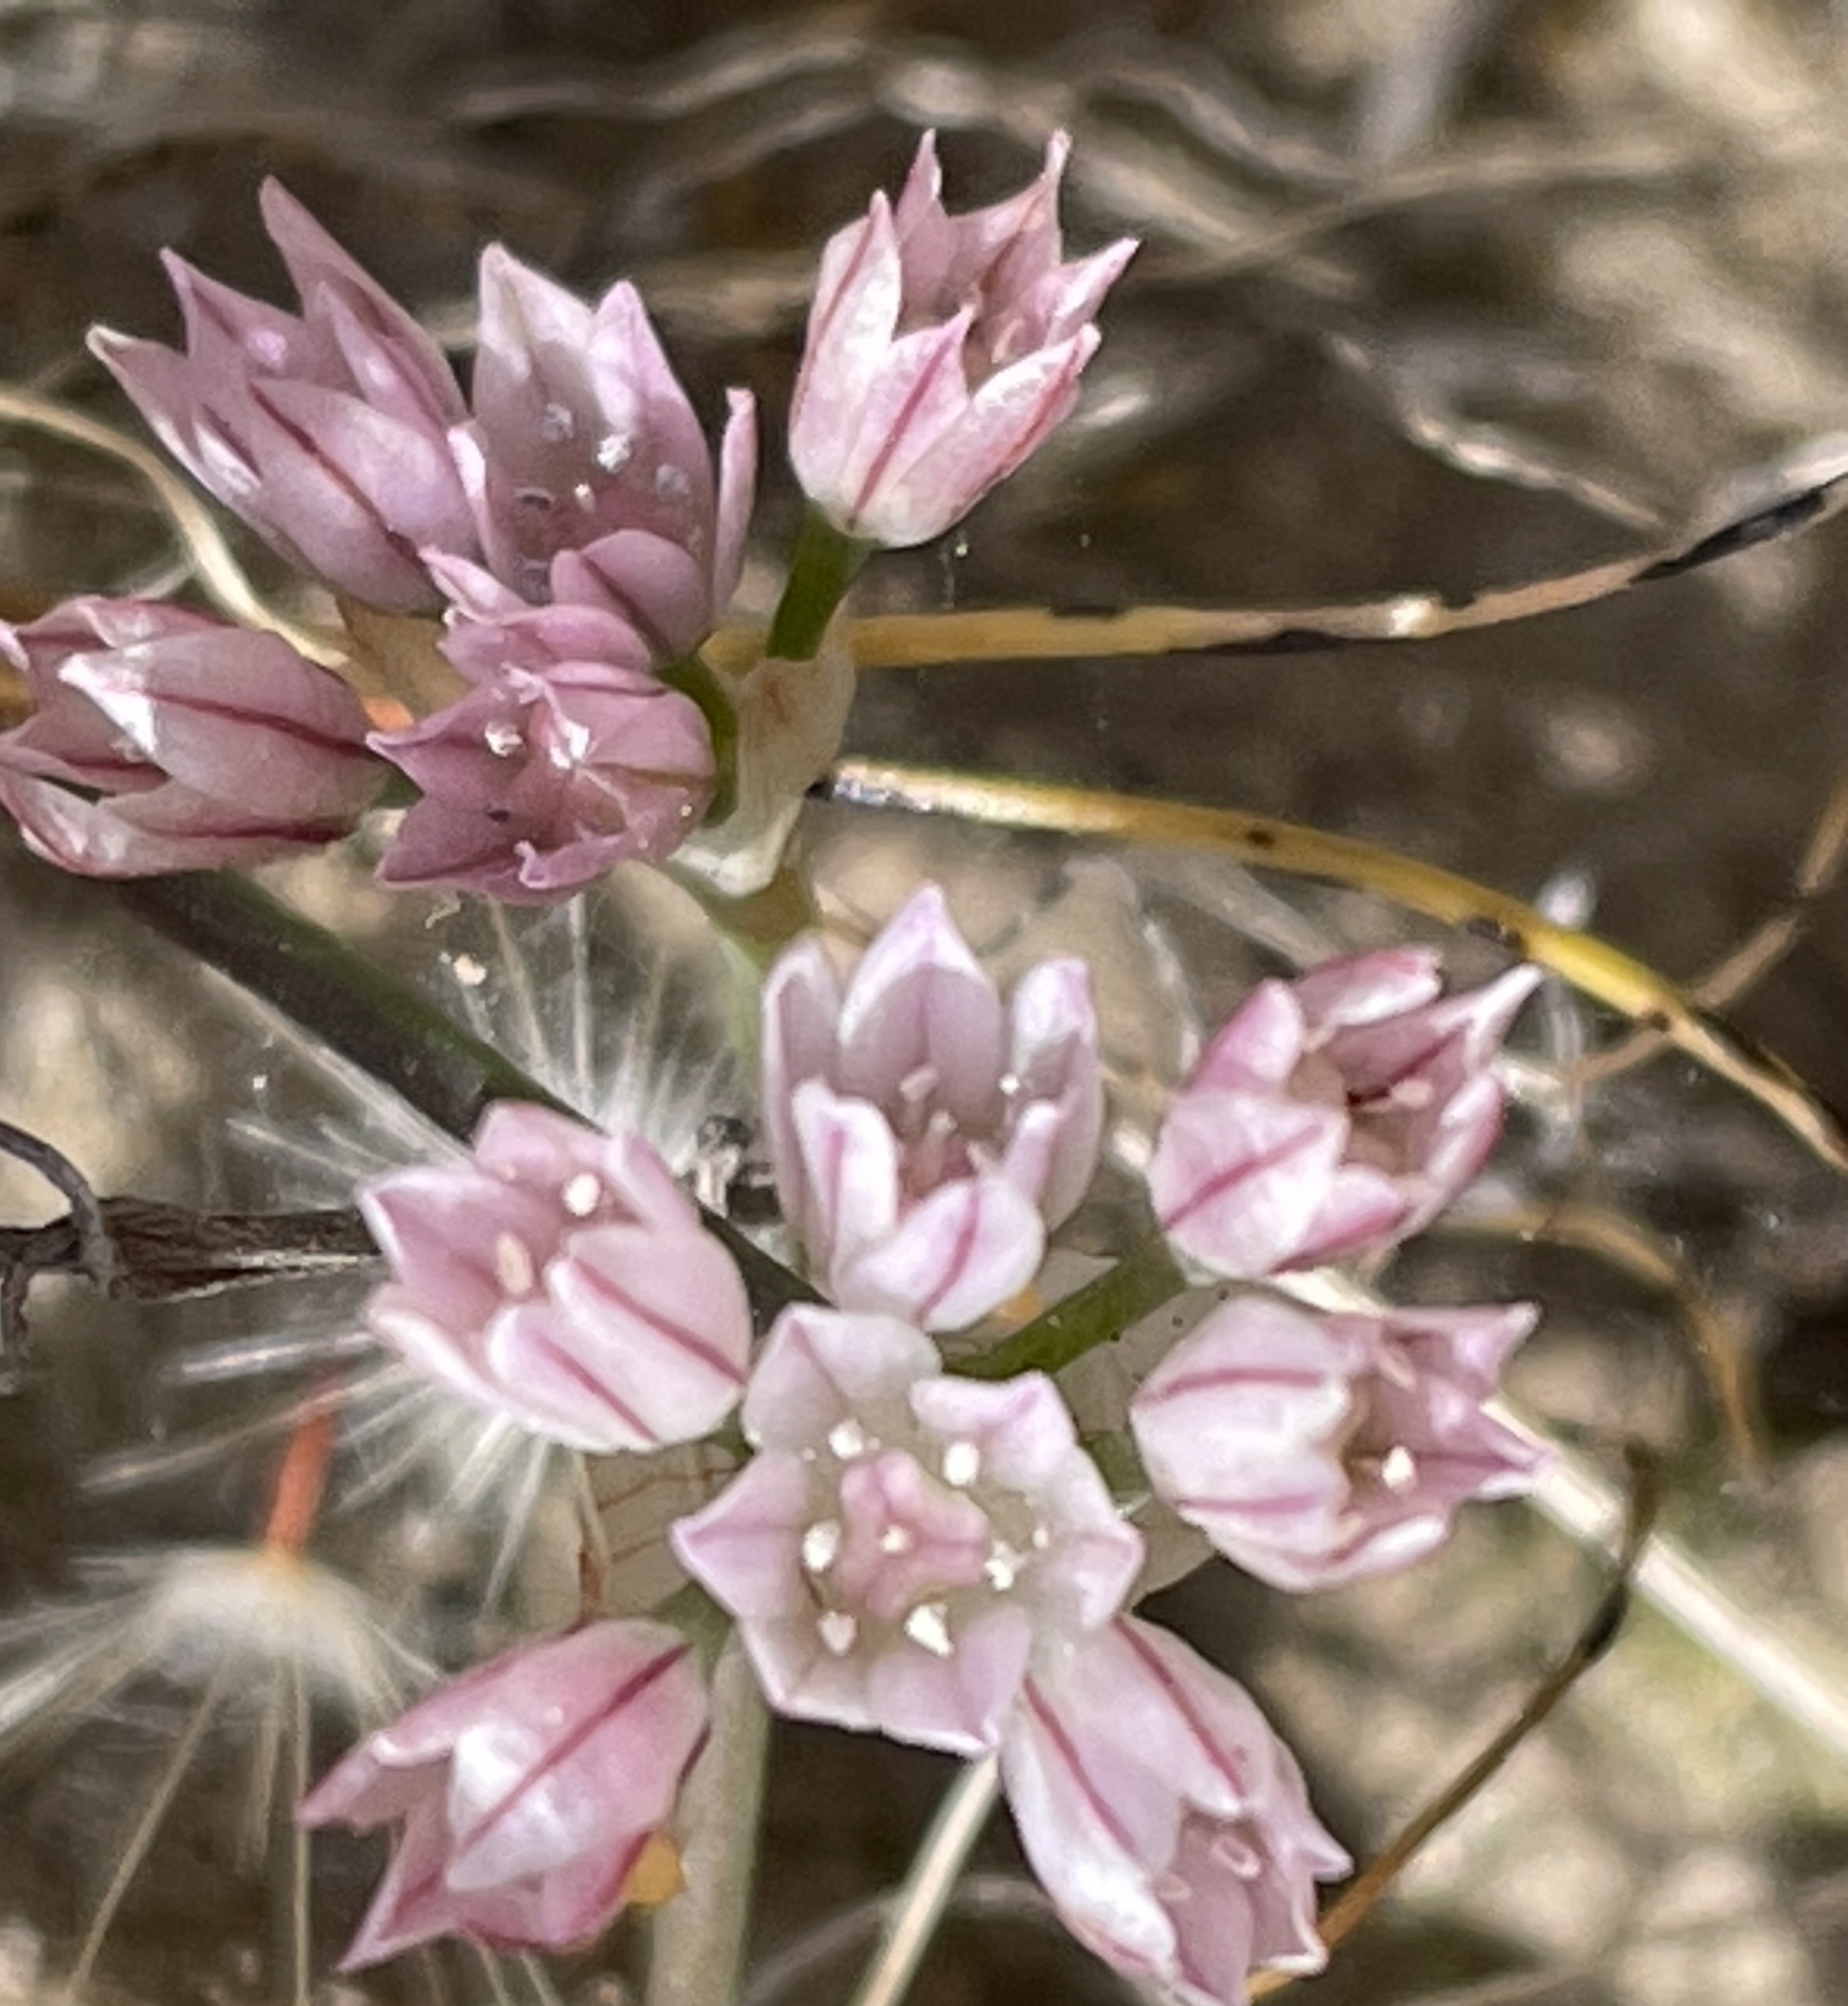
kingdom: Plantae
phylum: Tracheophyta
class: Liliopsida
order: Asparagales
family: Amaryllidaceae
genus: Allium
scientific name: Allium hickmanii
